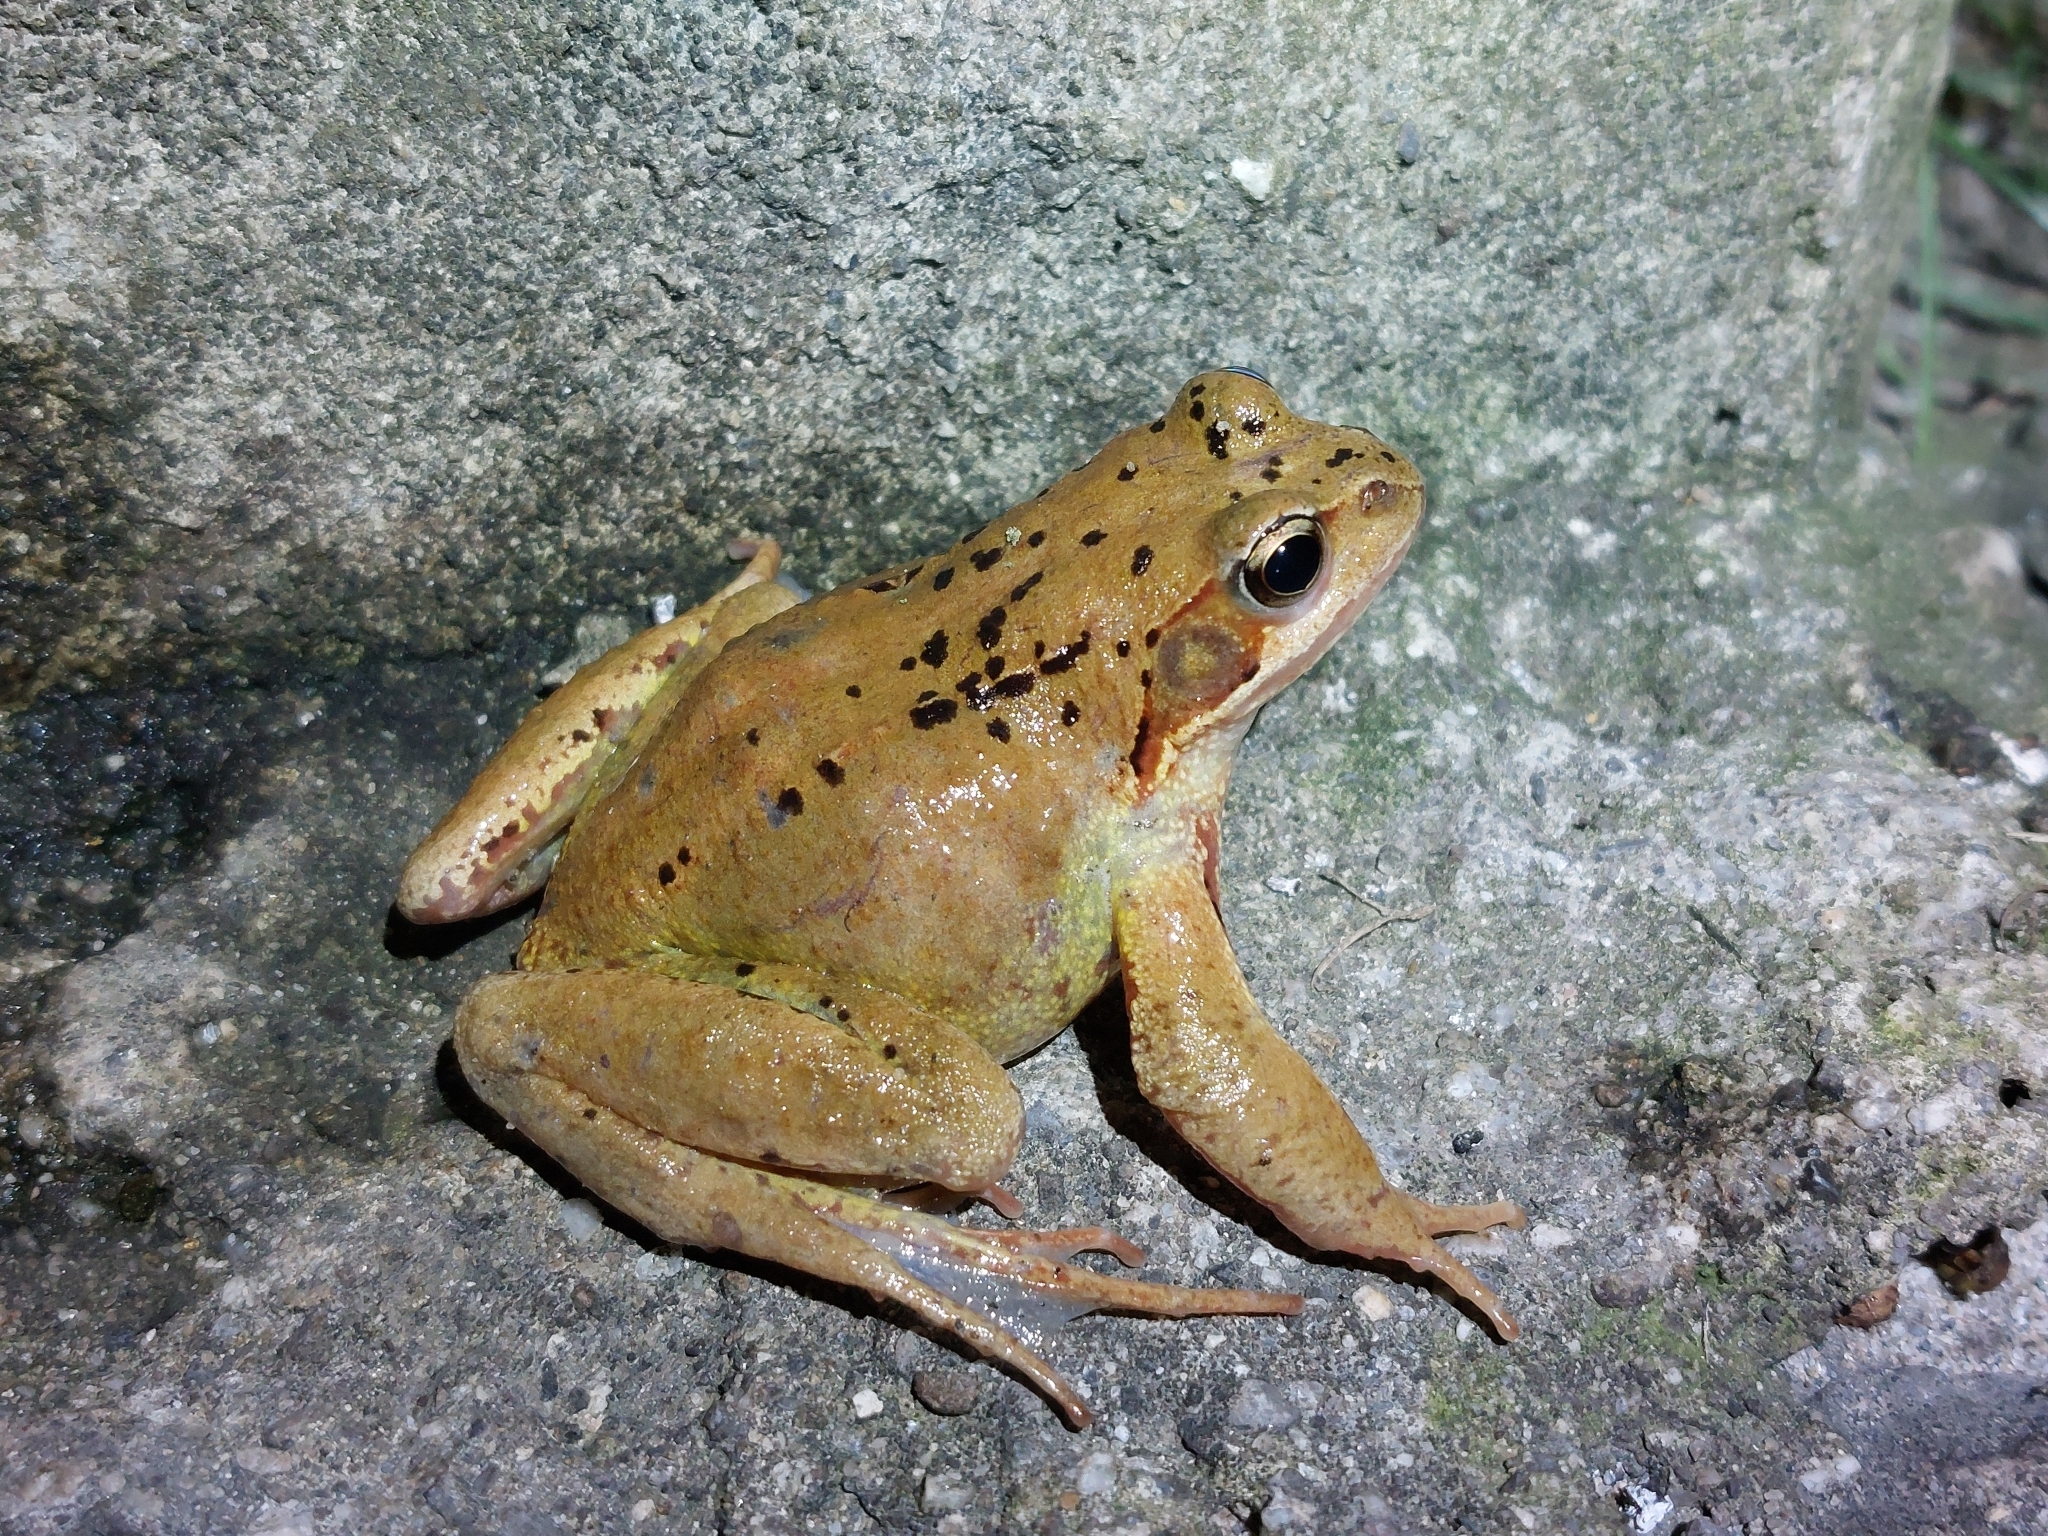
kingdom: Animalia
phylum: Chordata
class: Amphibia
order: Anura
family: Ranidae
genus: Rana
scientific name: Rana temporaria
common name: Common frog
